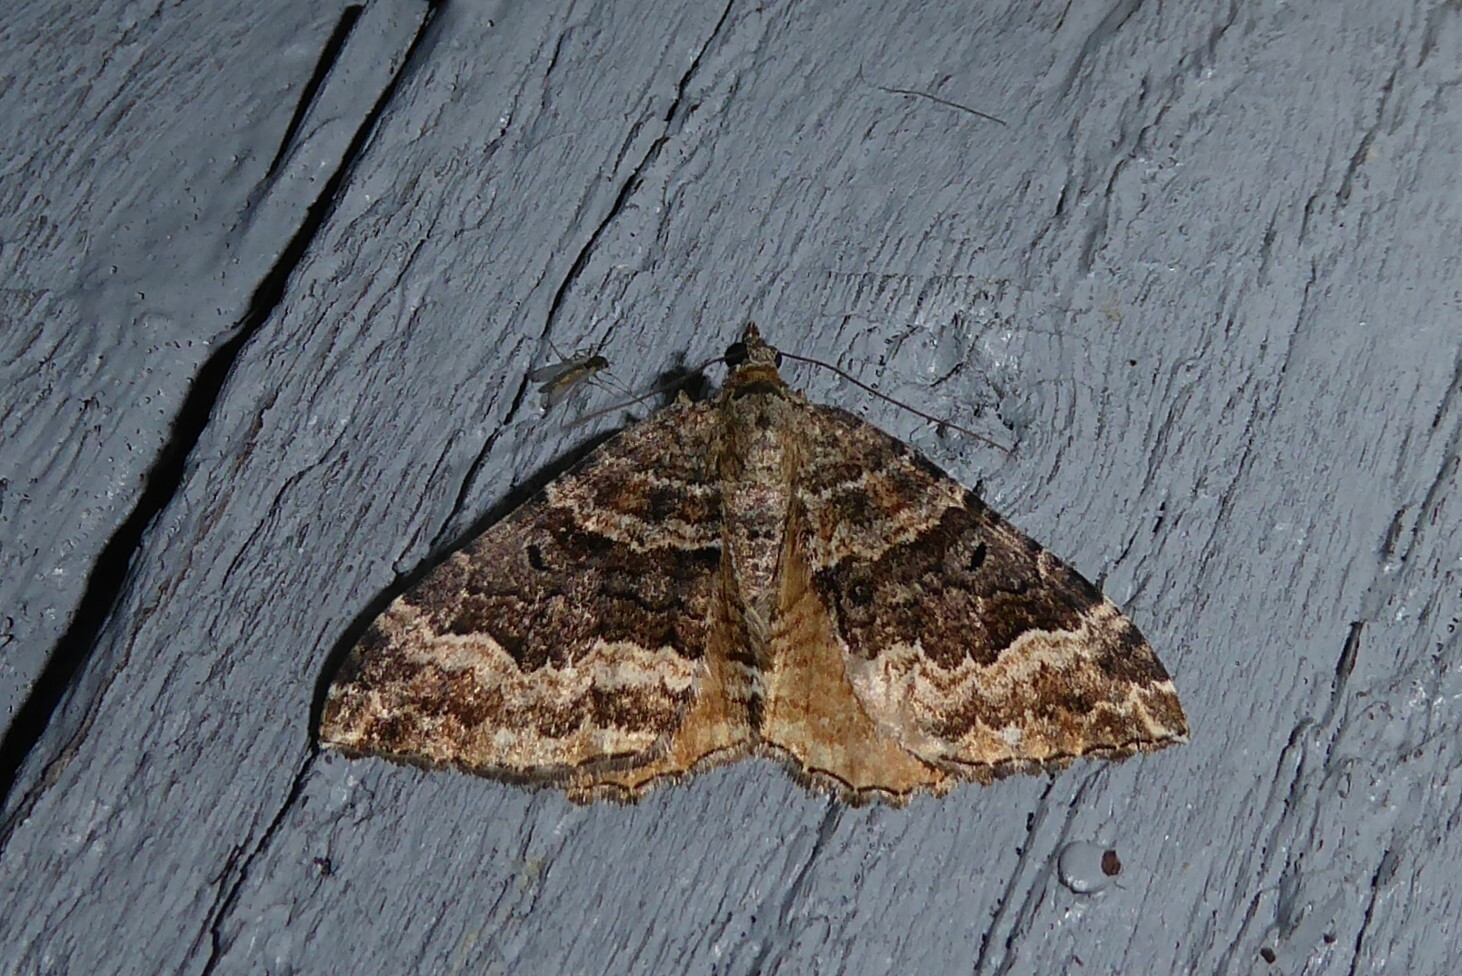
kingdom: Animalia
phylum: Arthropoda
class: Insecta
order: Lepidoptera
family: Geometridae
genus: Hydriomena
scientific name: Hydriomena deltoidata
